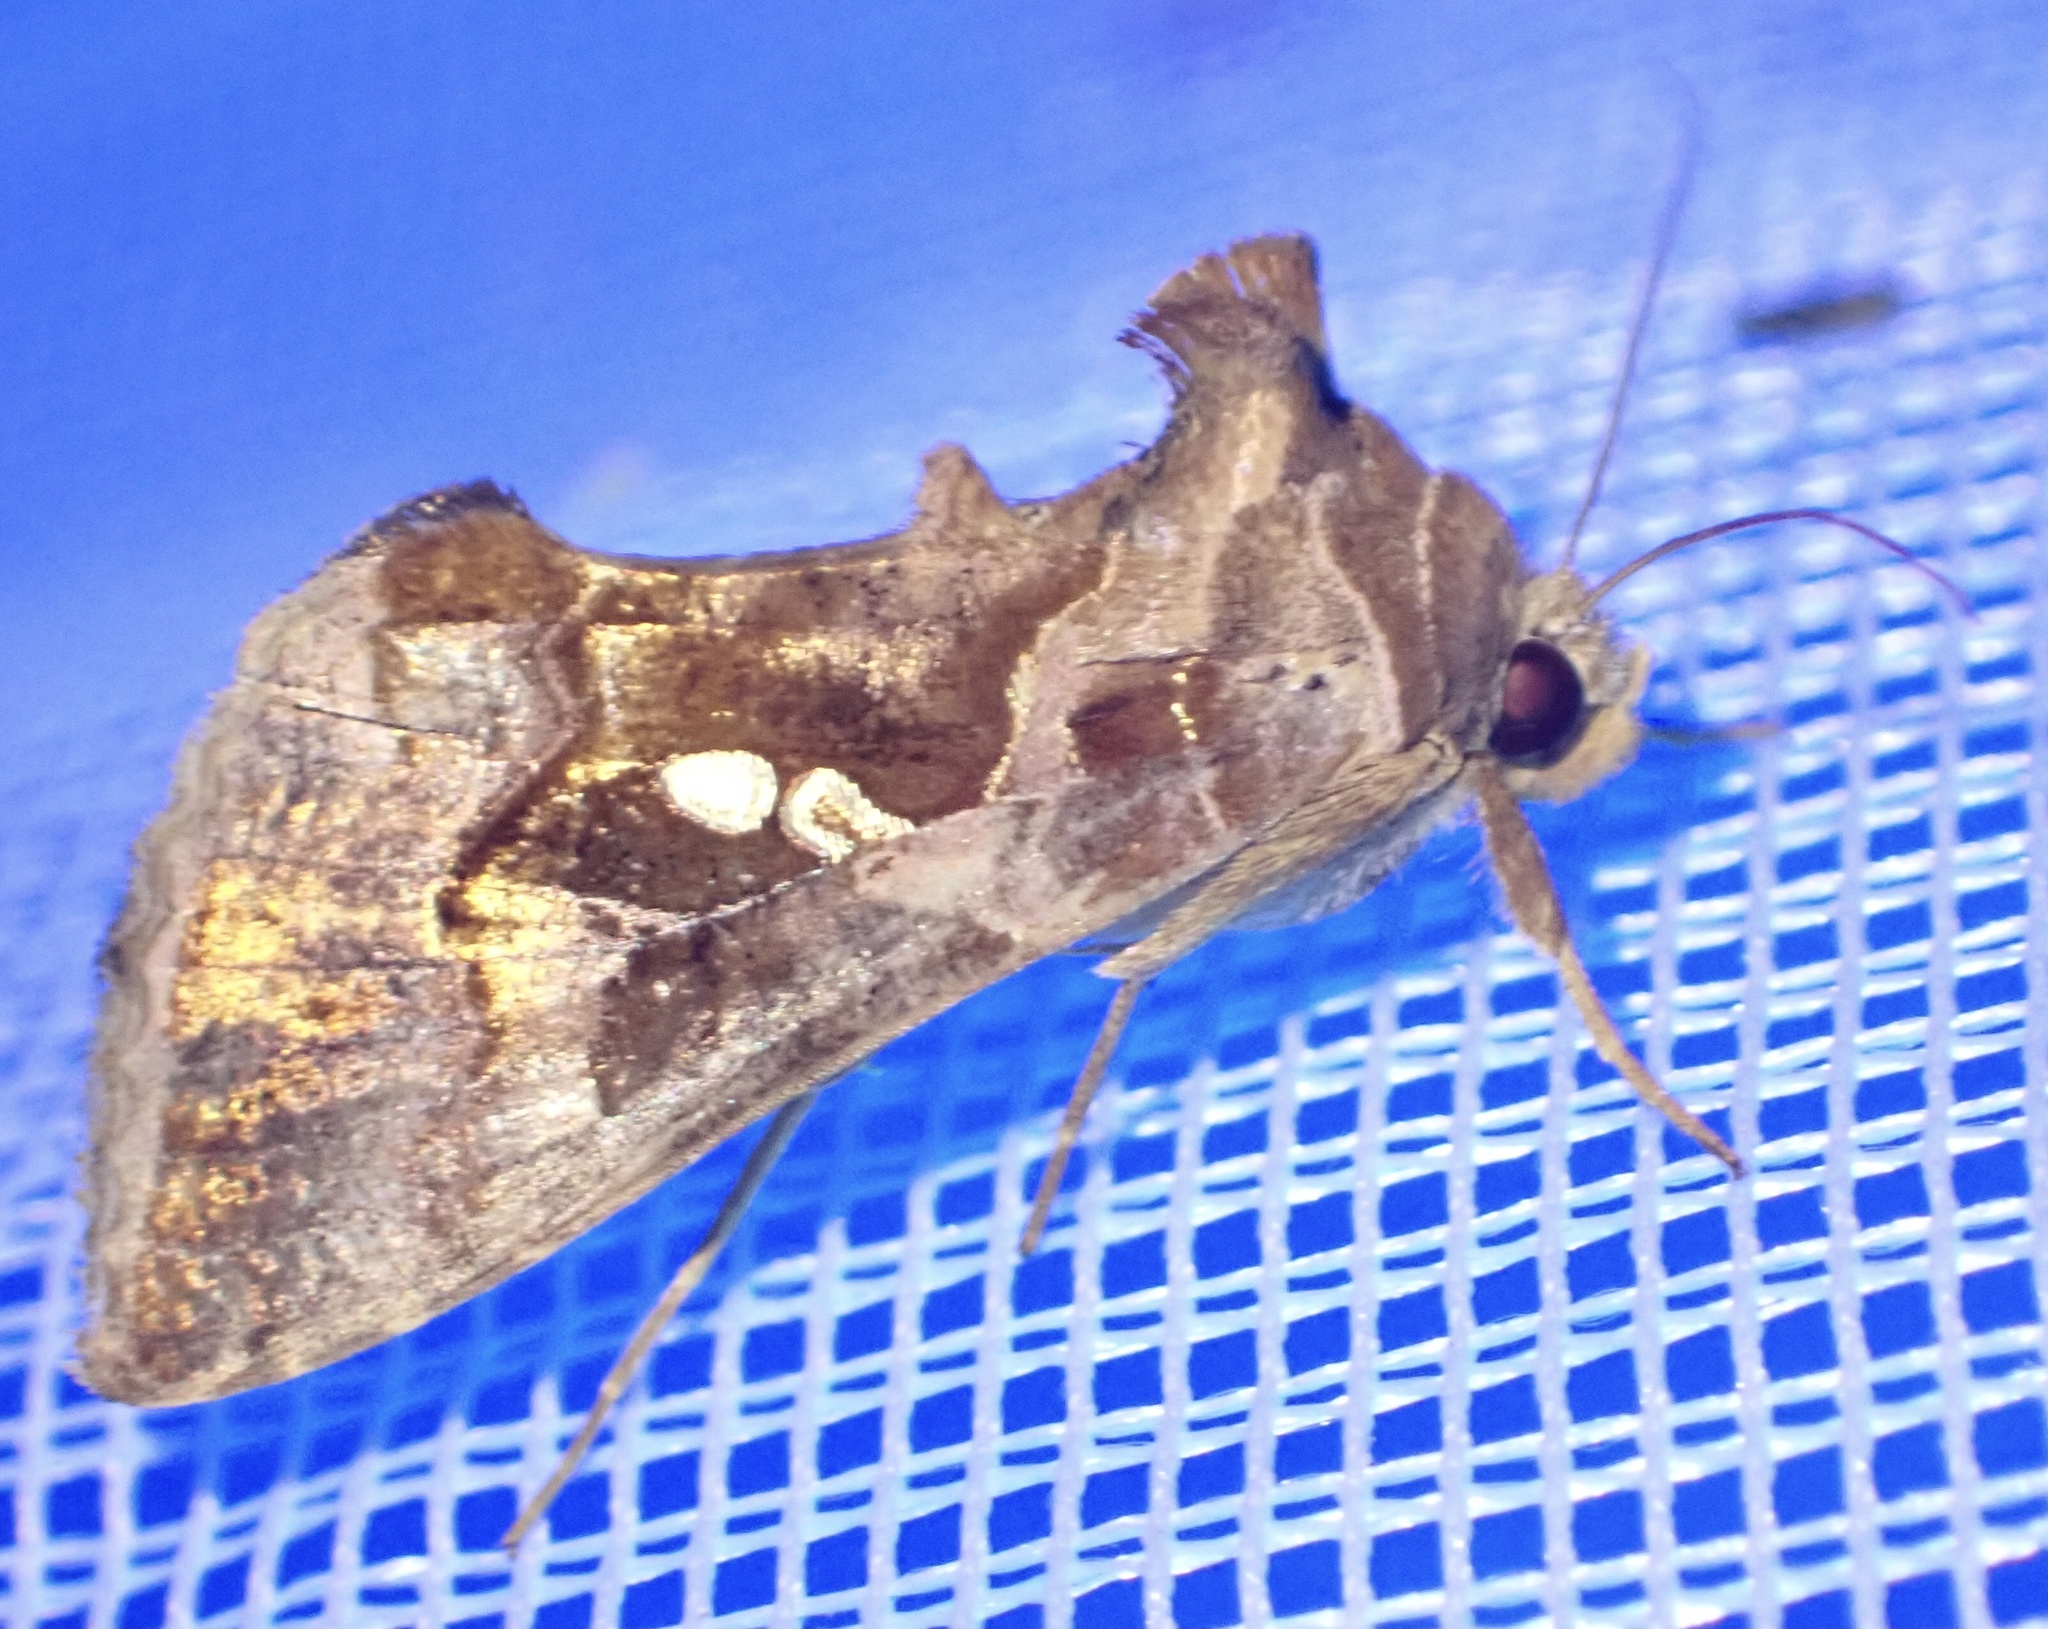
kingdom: Animalia
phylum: Arthropoda
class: Insecta
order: Lepidoptera
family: Noctuidae
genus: Chrysodeixis
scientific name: Chrysodeixis chalcites
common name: Golden twin-spot
